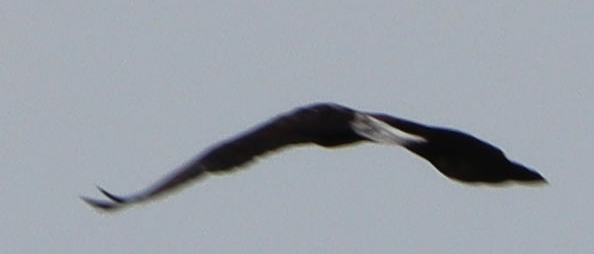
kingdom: Animalia
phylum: Chordata
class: Aves
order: Accipitriformes
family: Accipitridae
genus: Haliaeetus
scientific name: Haliaeetus leucocephalus
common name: Bald eagle
